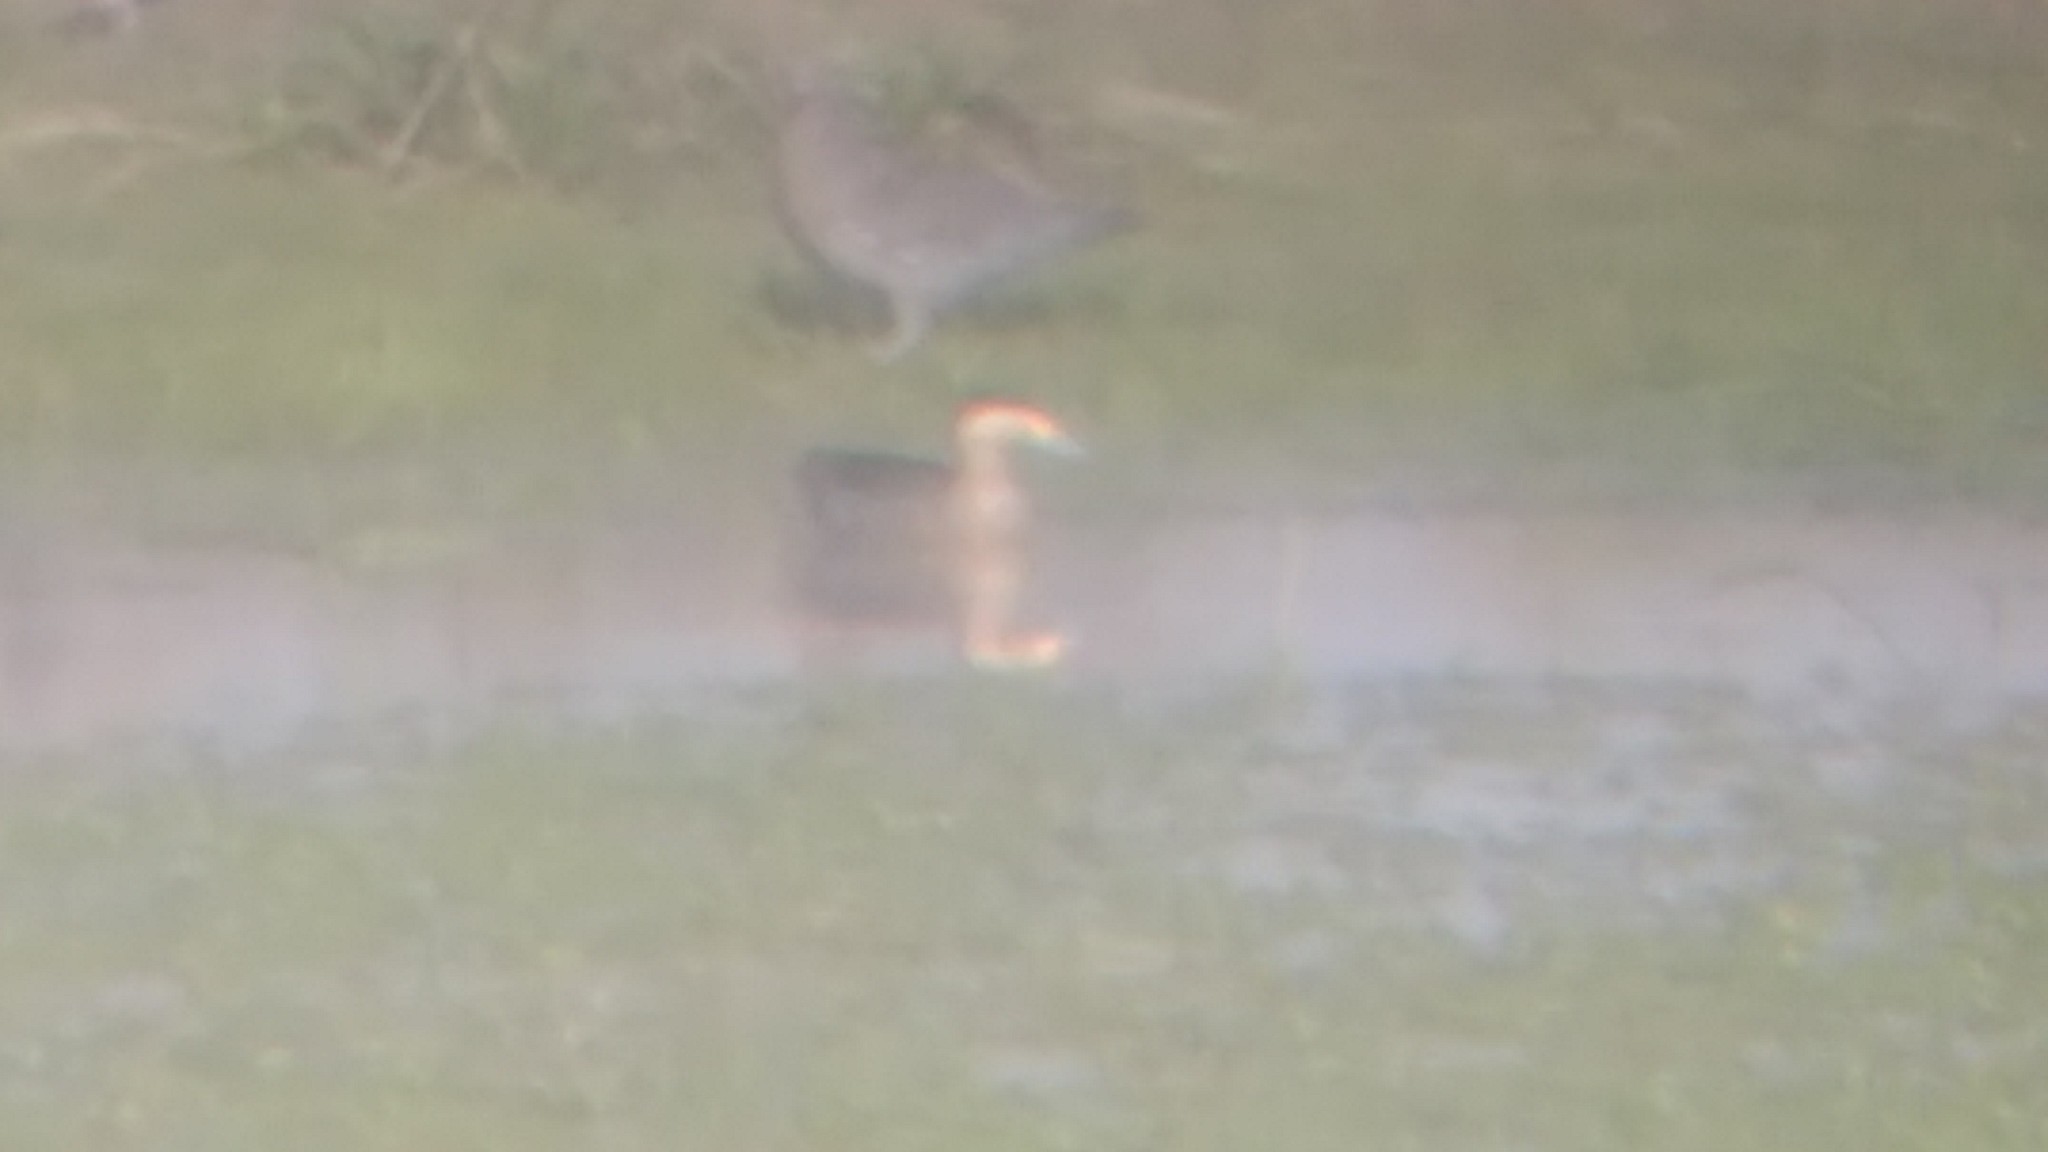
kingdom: Animalia
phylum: Chordata
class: Aves
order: Anseriformes
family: Anatidae
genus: Spatula
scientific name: Spatula versicolor
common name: Silver teal
